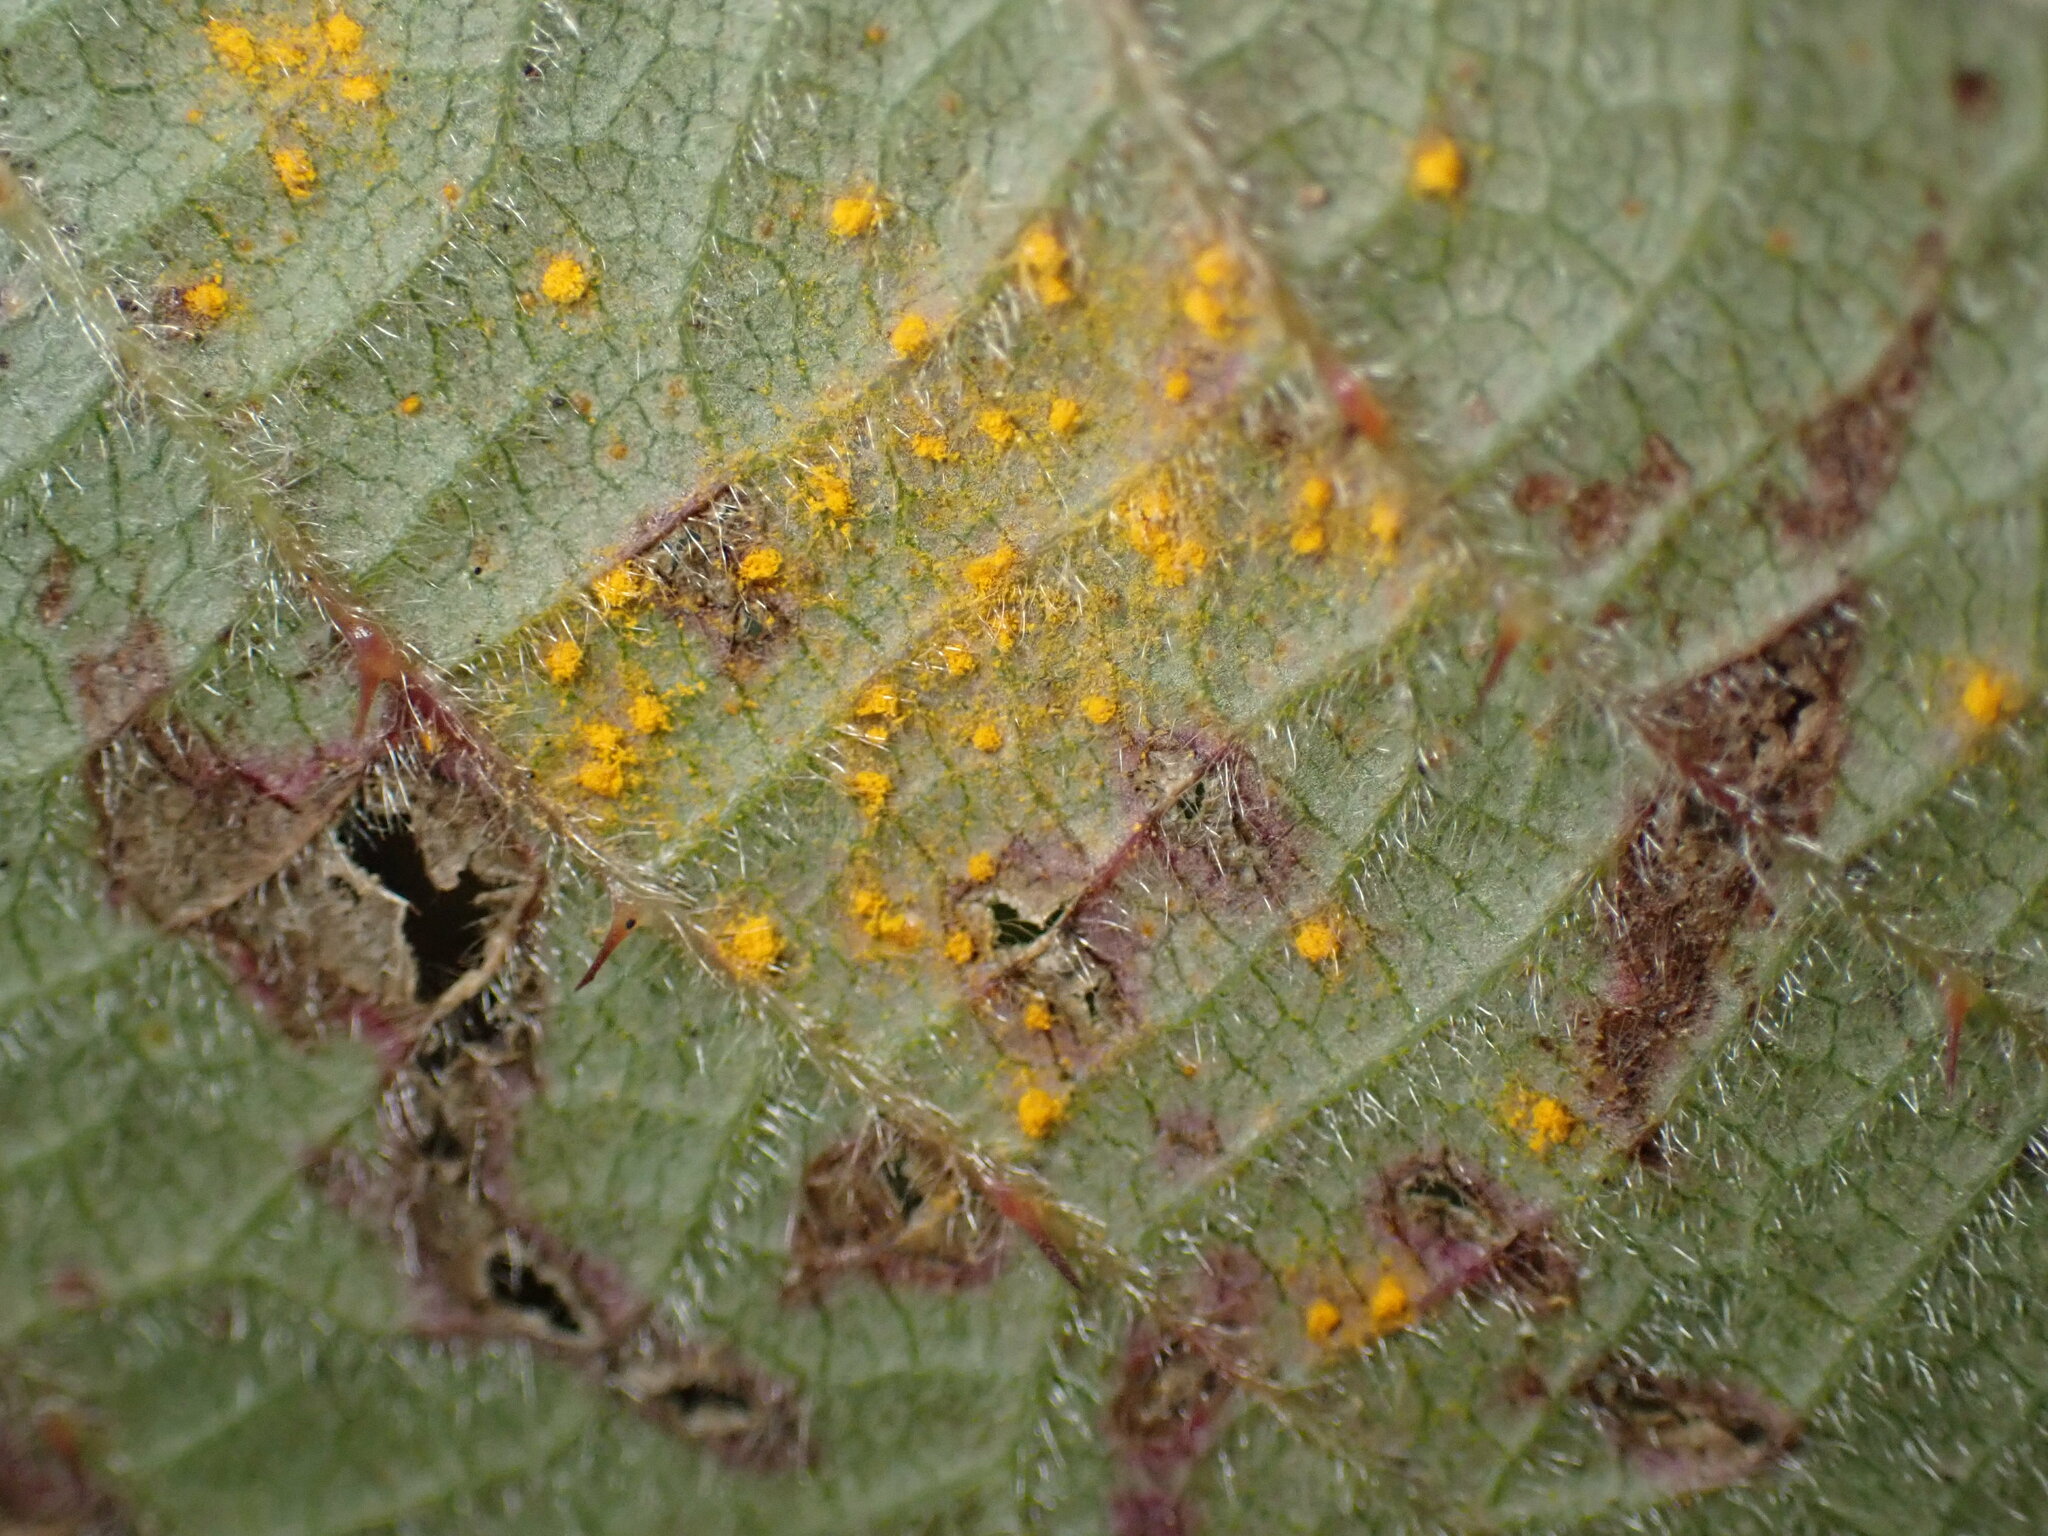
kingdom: Fungi
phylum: Basidiomycota
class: Pucciniomycetes
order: Pucciniales
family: Phragmidiaceae
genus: Phragmidium
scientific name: Phragmidium violaceum
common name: Violet bramble rust
